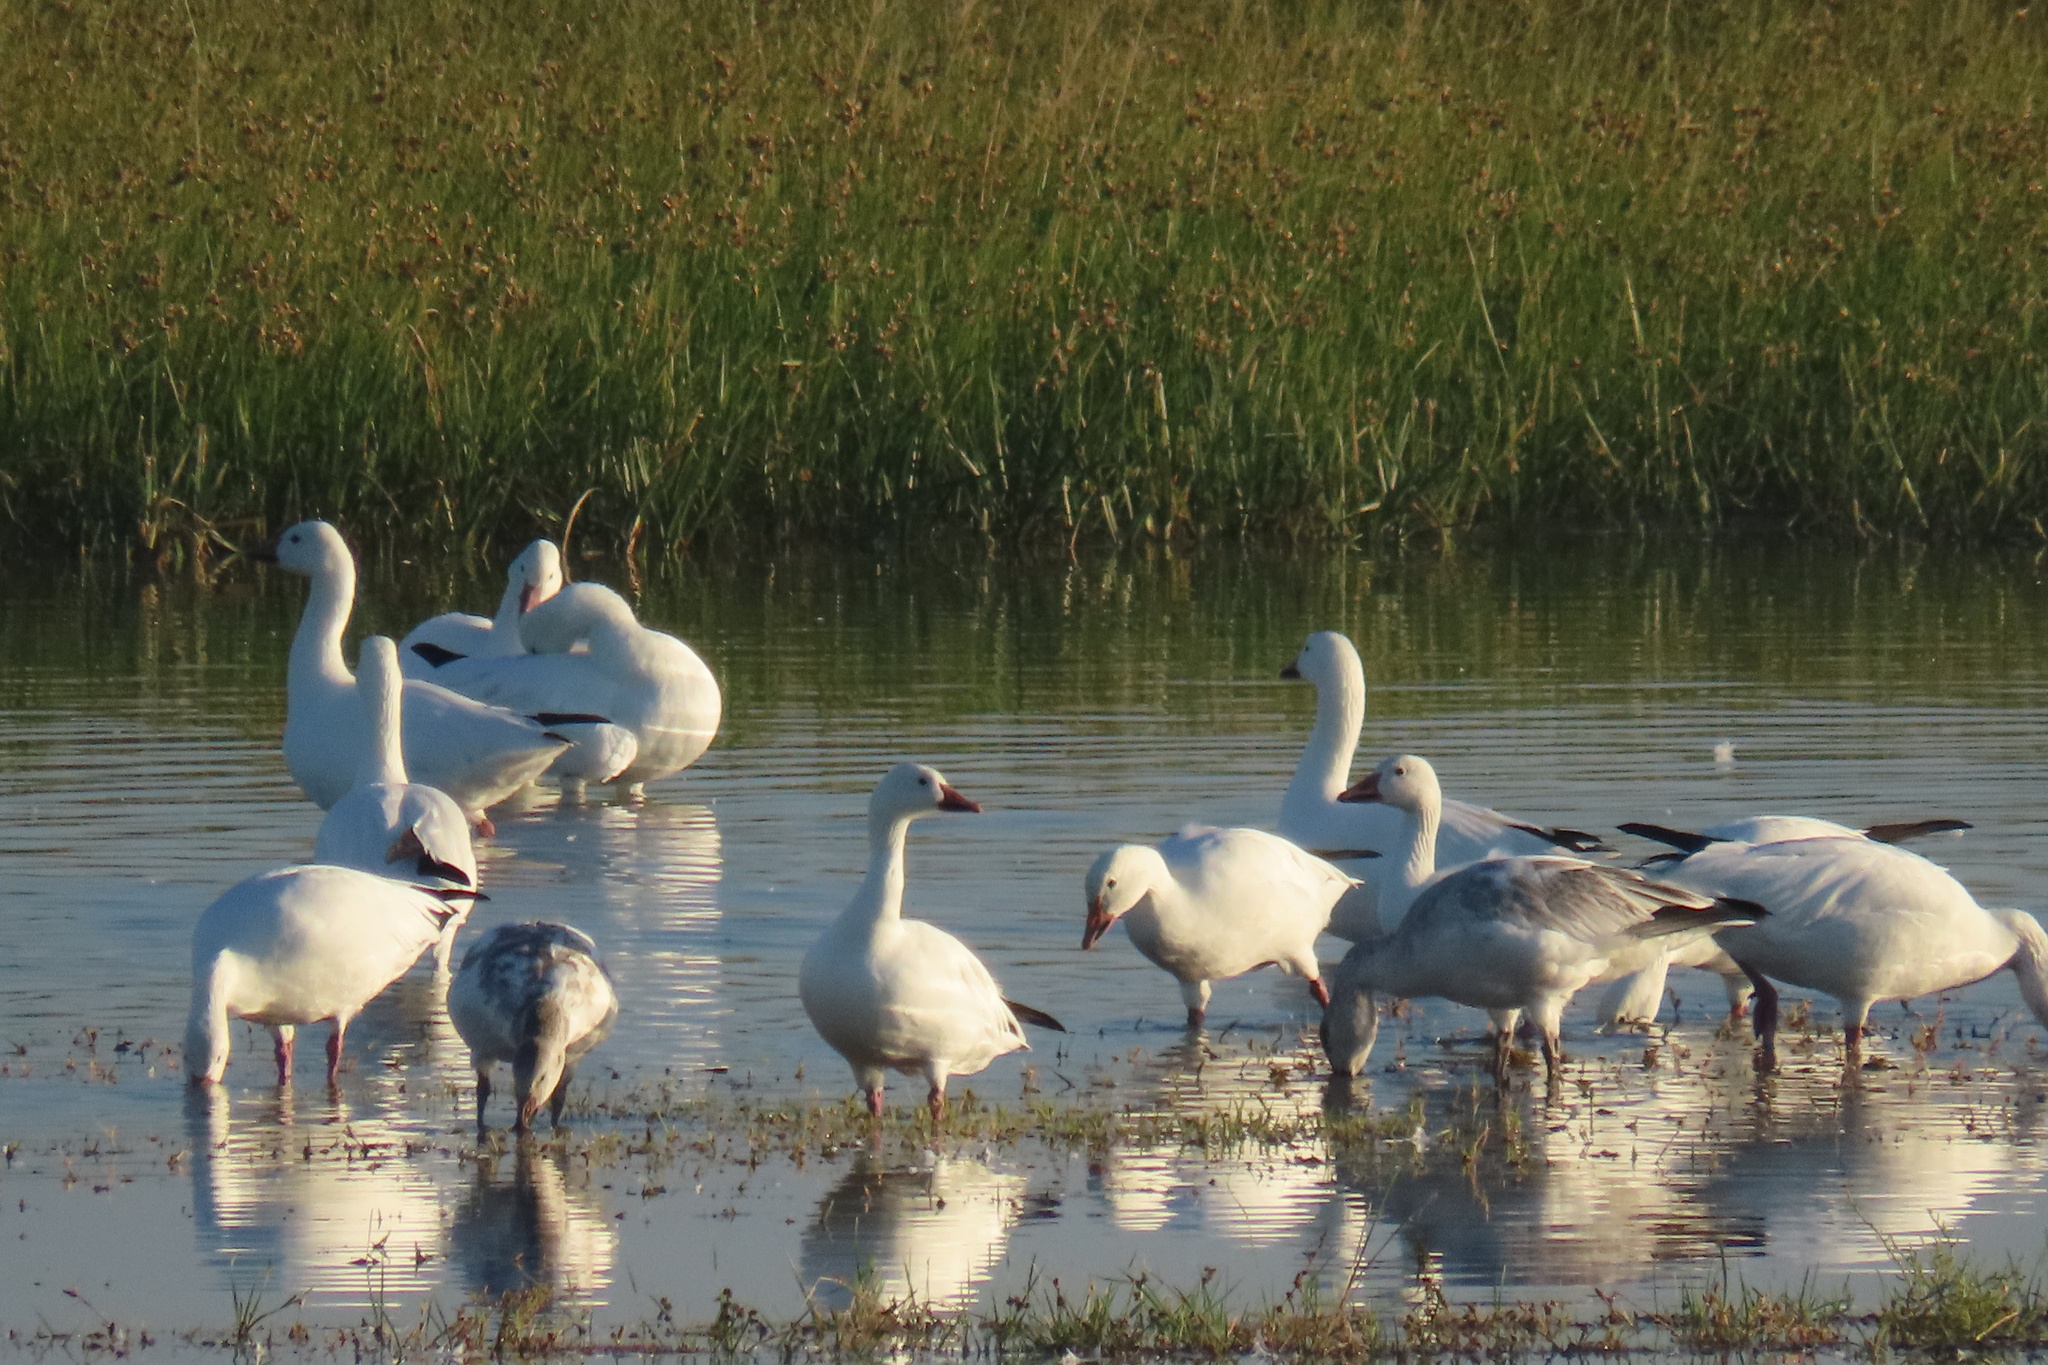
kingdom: Animalia
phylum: Chordata
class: Aves
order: Anseriformes
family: Anatidae
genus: Anser
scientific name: Anser caerulescens
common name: Snow goose
